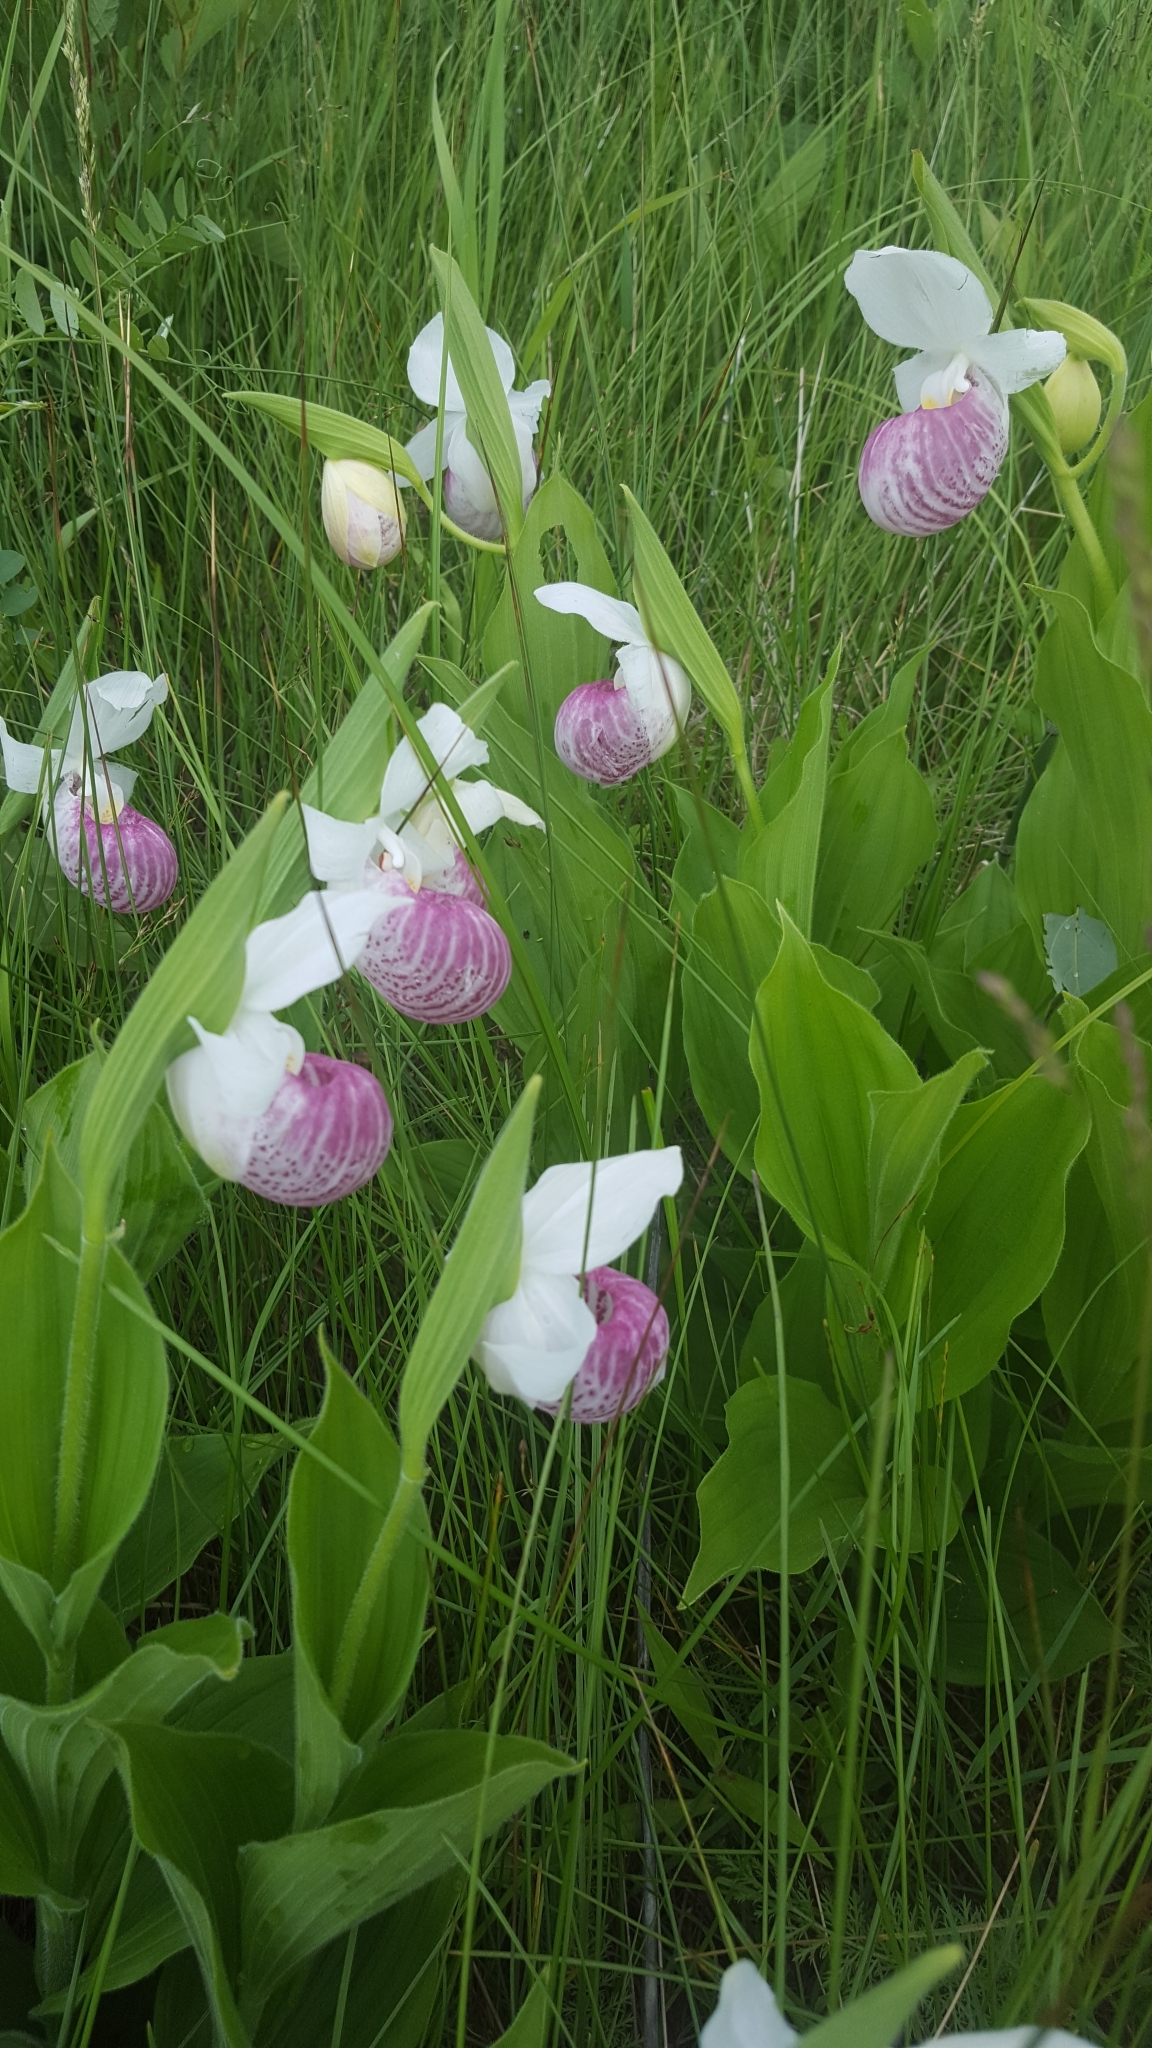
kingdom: Plantae
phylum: Tracheophyta
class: Liliopsida
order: Asparagales
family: Orchidaceae
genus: Cypripedium
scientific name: Cypripedium reginae
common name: Queen lady's-slipper
